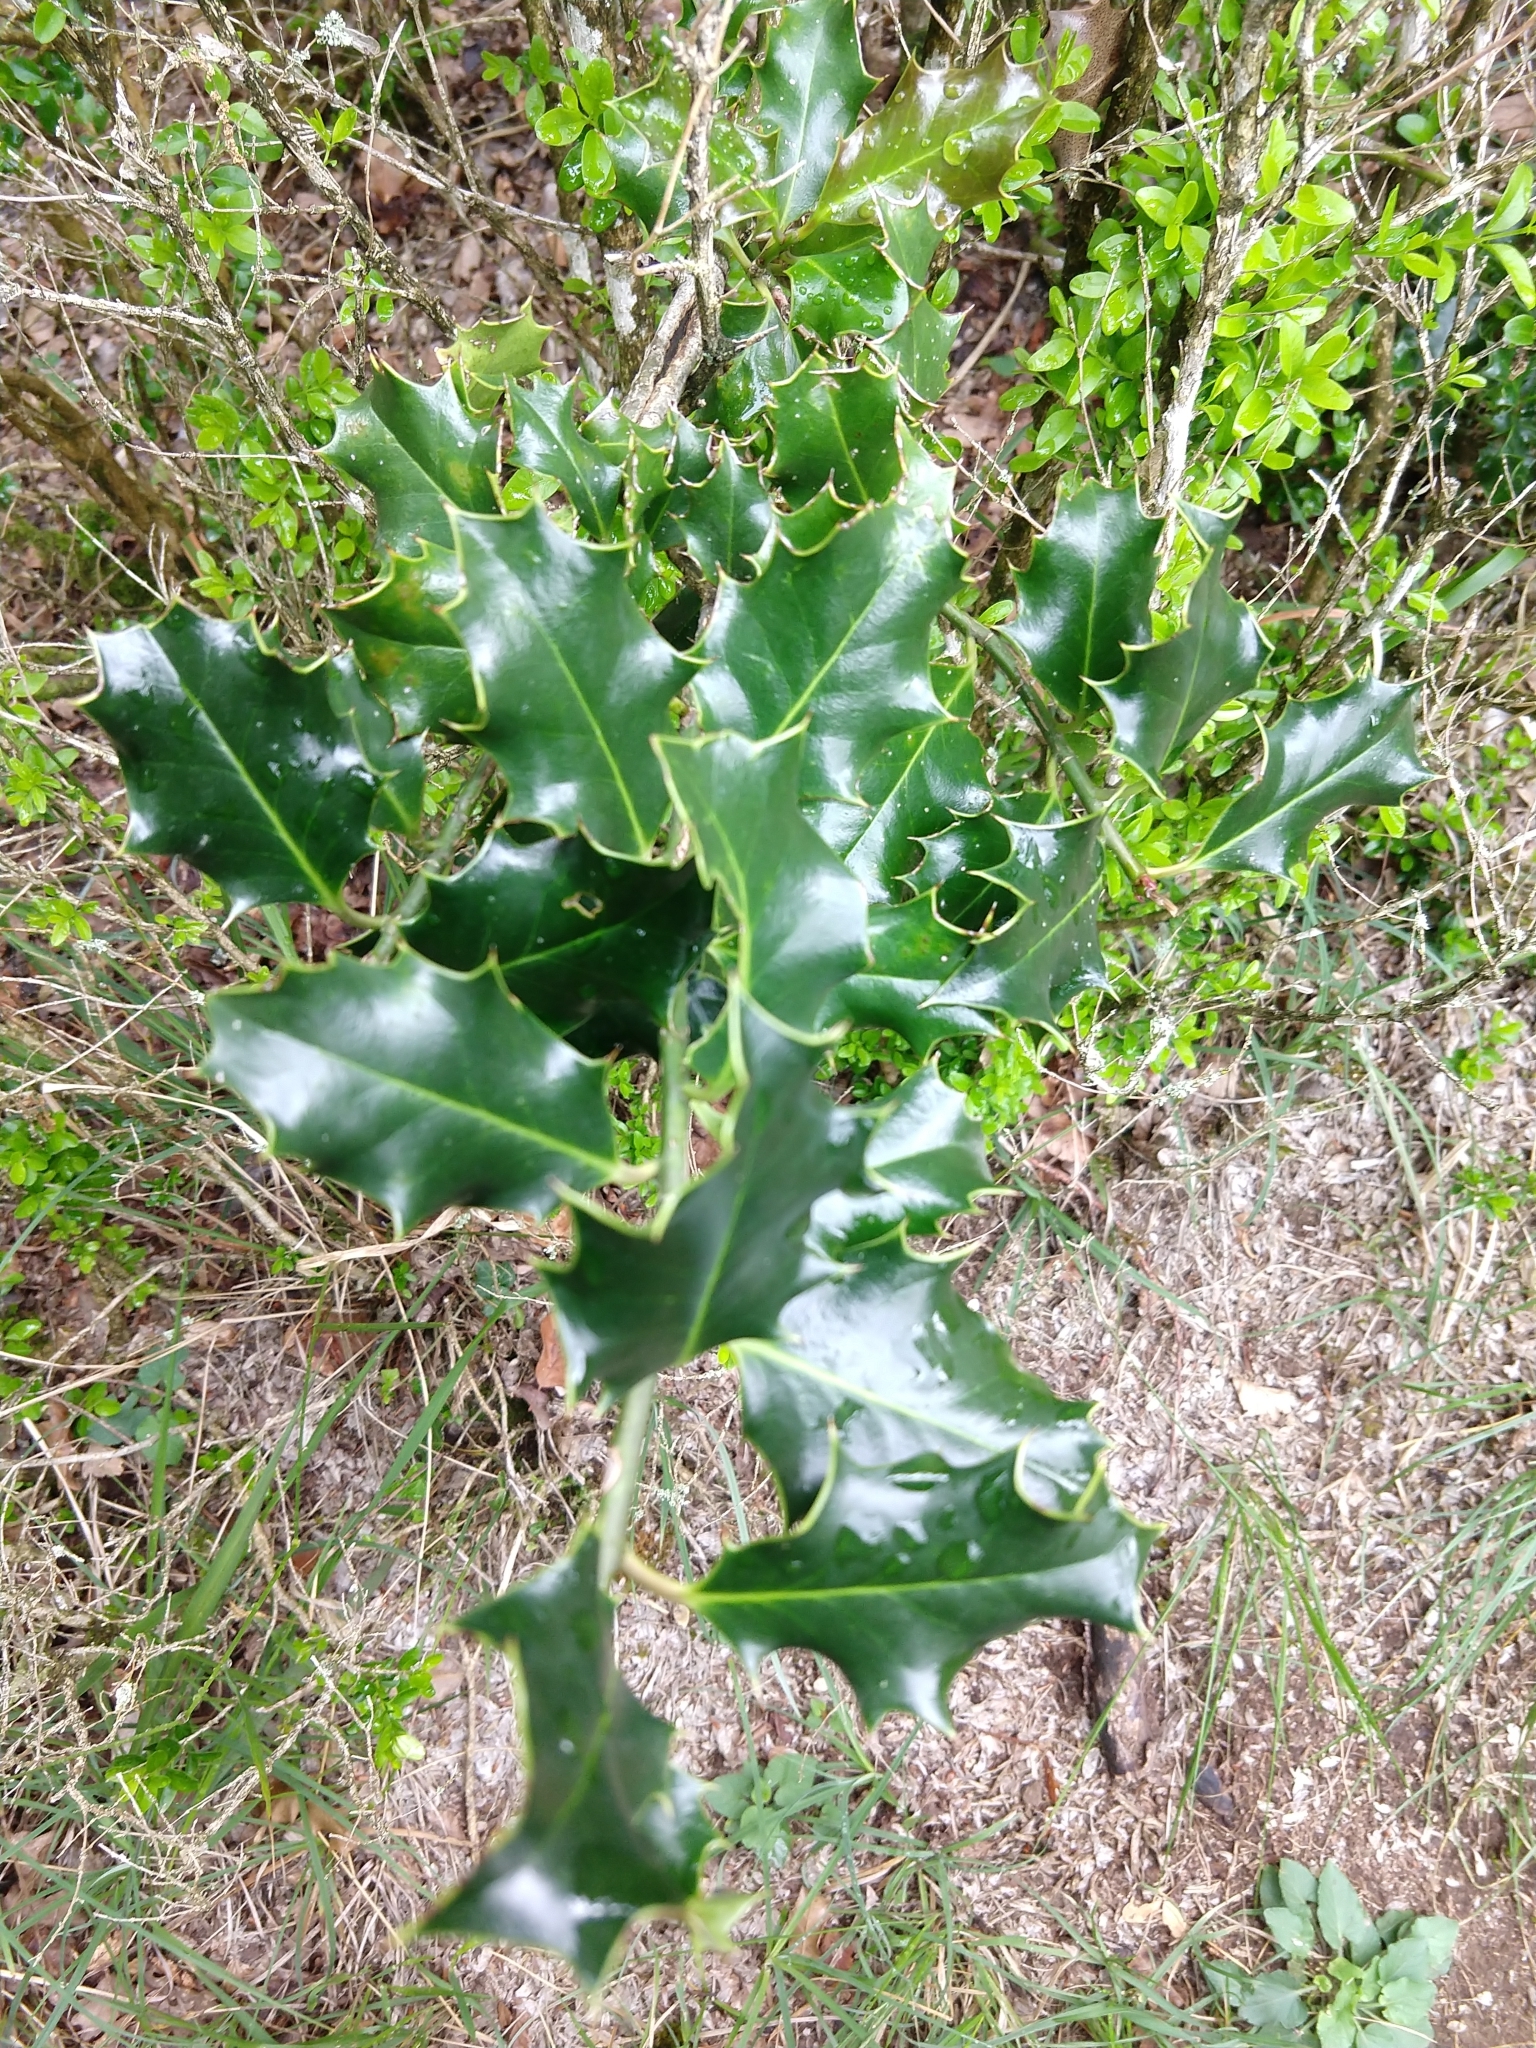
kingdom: Plantae
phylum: Tracheophyta
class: Magnoliopsida
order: Aquifoliales
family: Aquifoliaceae
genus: Ilex
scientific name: Ilex aquifolium
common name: English holly
